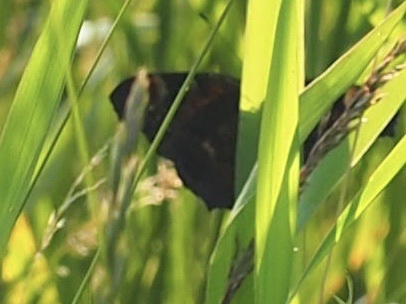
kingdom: Animalia
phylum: Arthropoda
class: Insecta
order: Lepidoptera
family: Nymphalidae
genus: Aglais
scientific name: Aglais io
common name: Peacock
